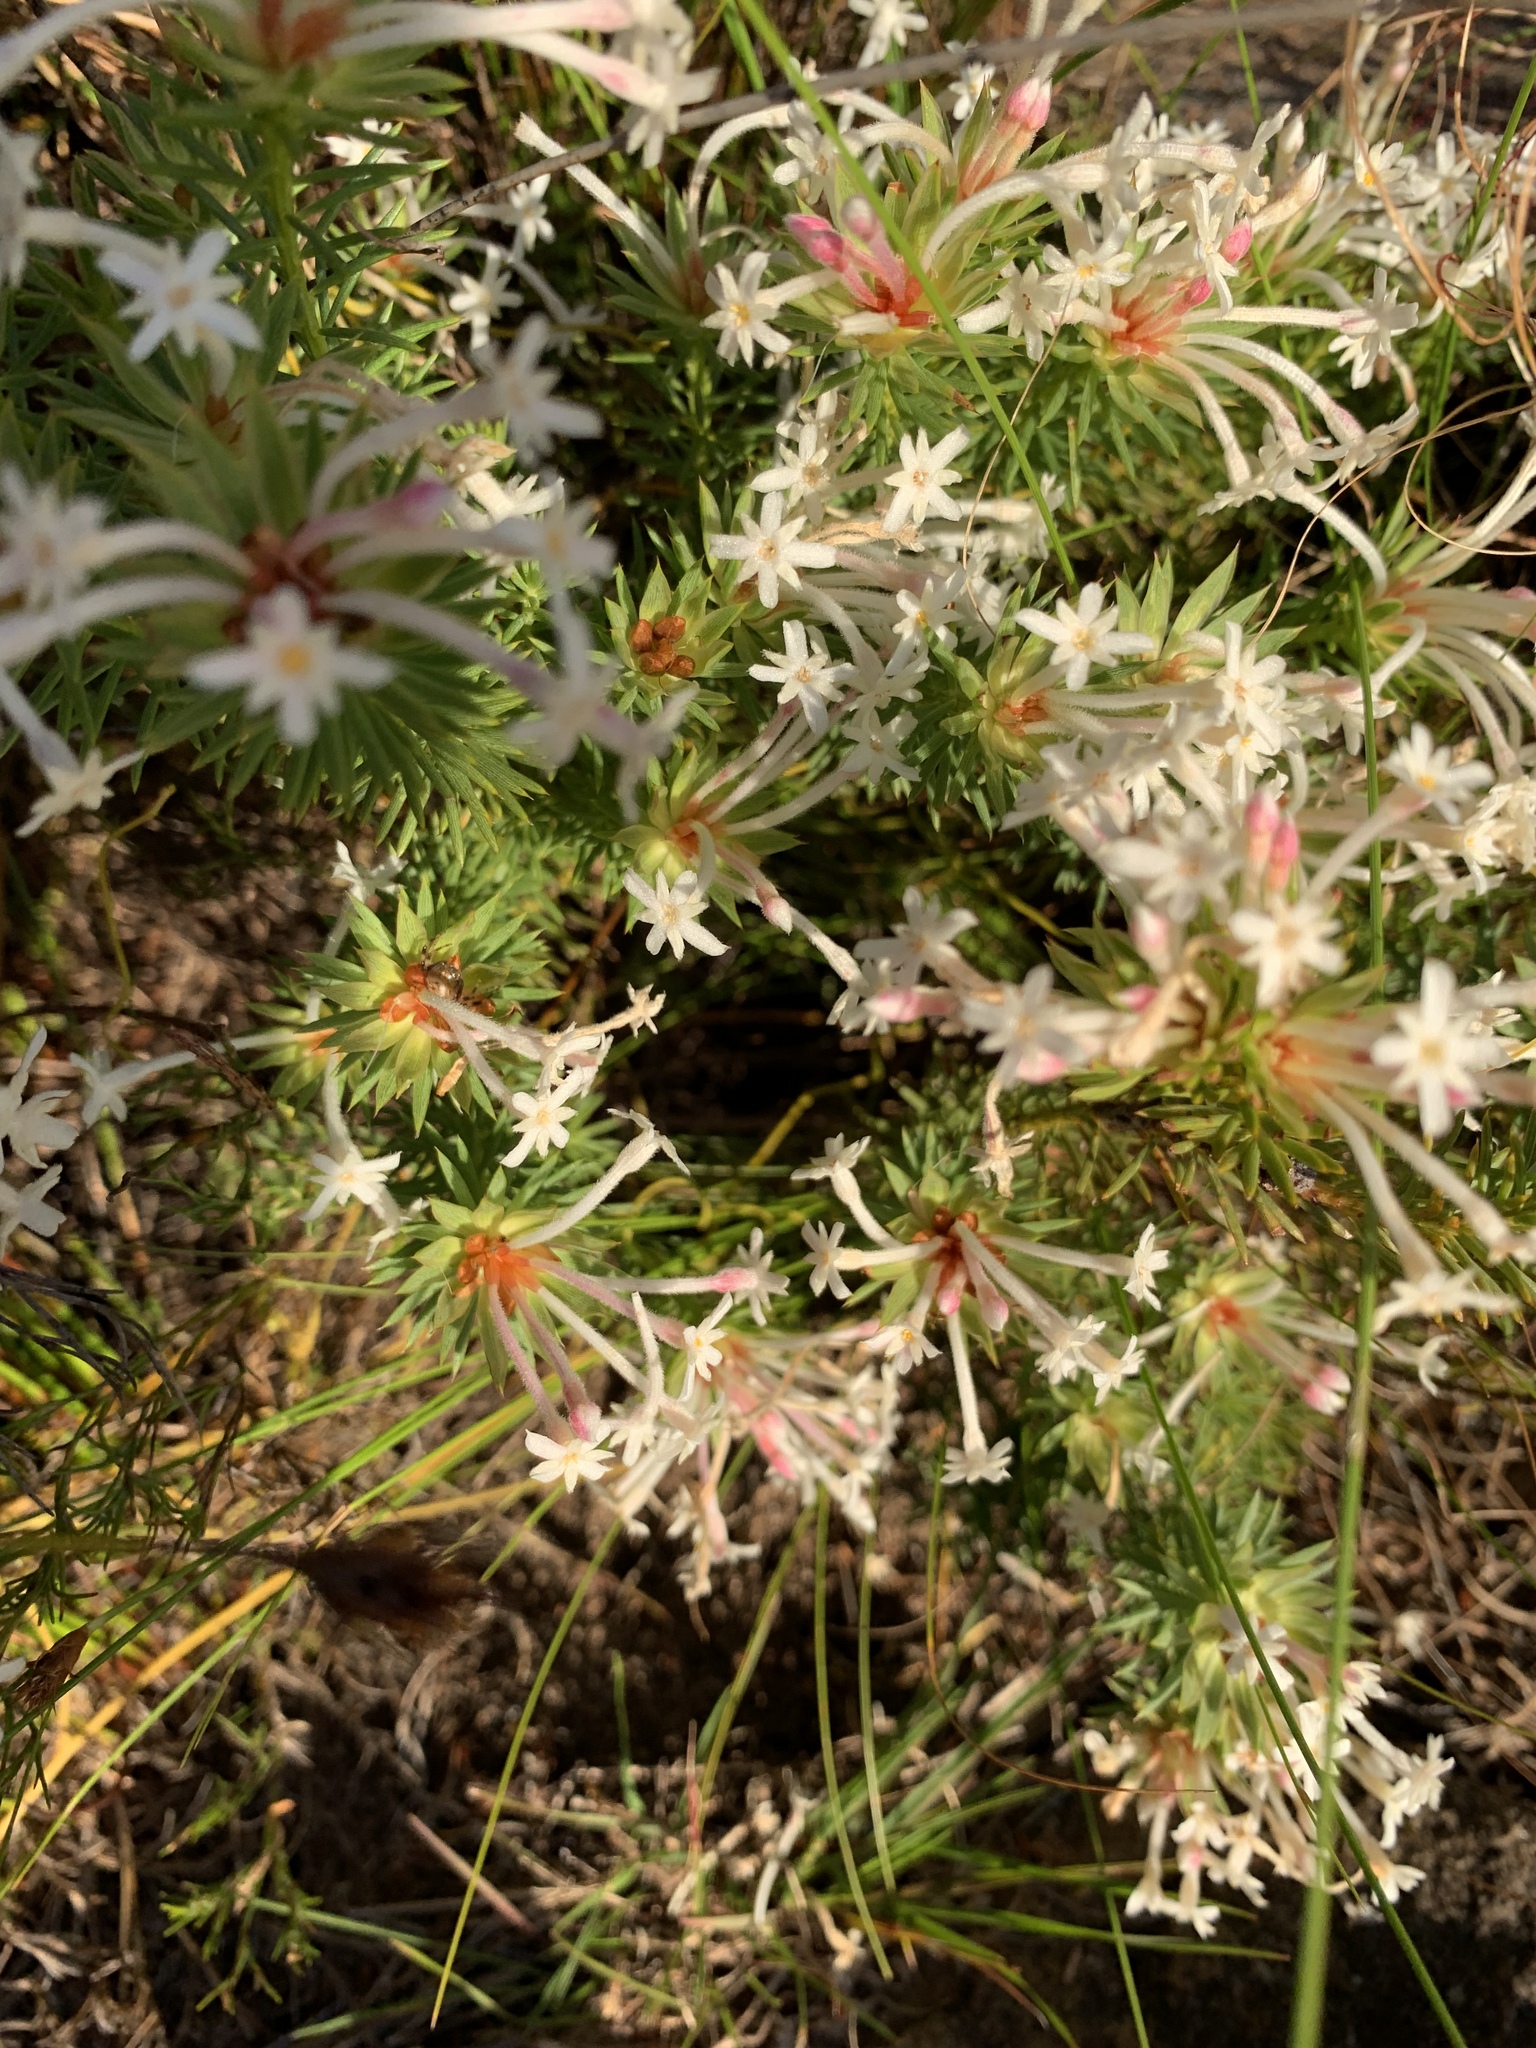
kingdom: Plantae
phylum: Tracheophyta
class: Magnoliopsida
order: Malvales
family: Thymelaeaceae
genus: Gnidia
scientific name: Gnidia pinifolia
